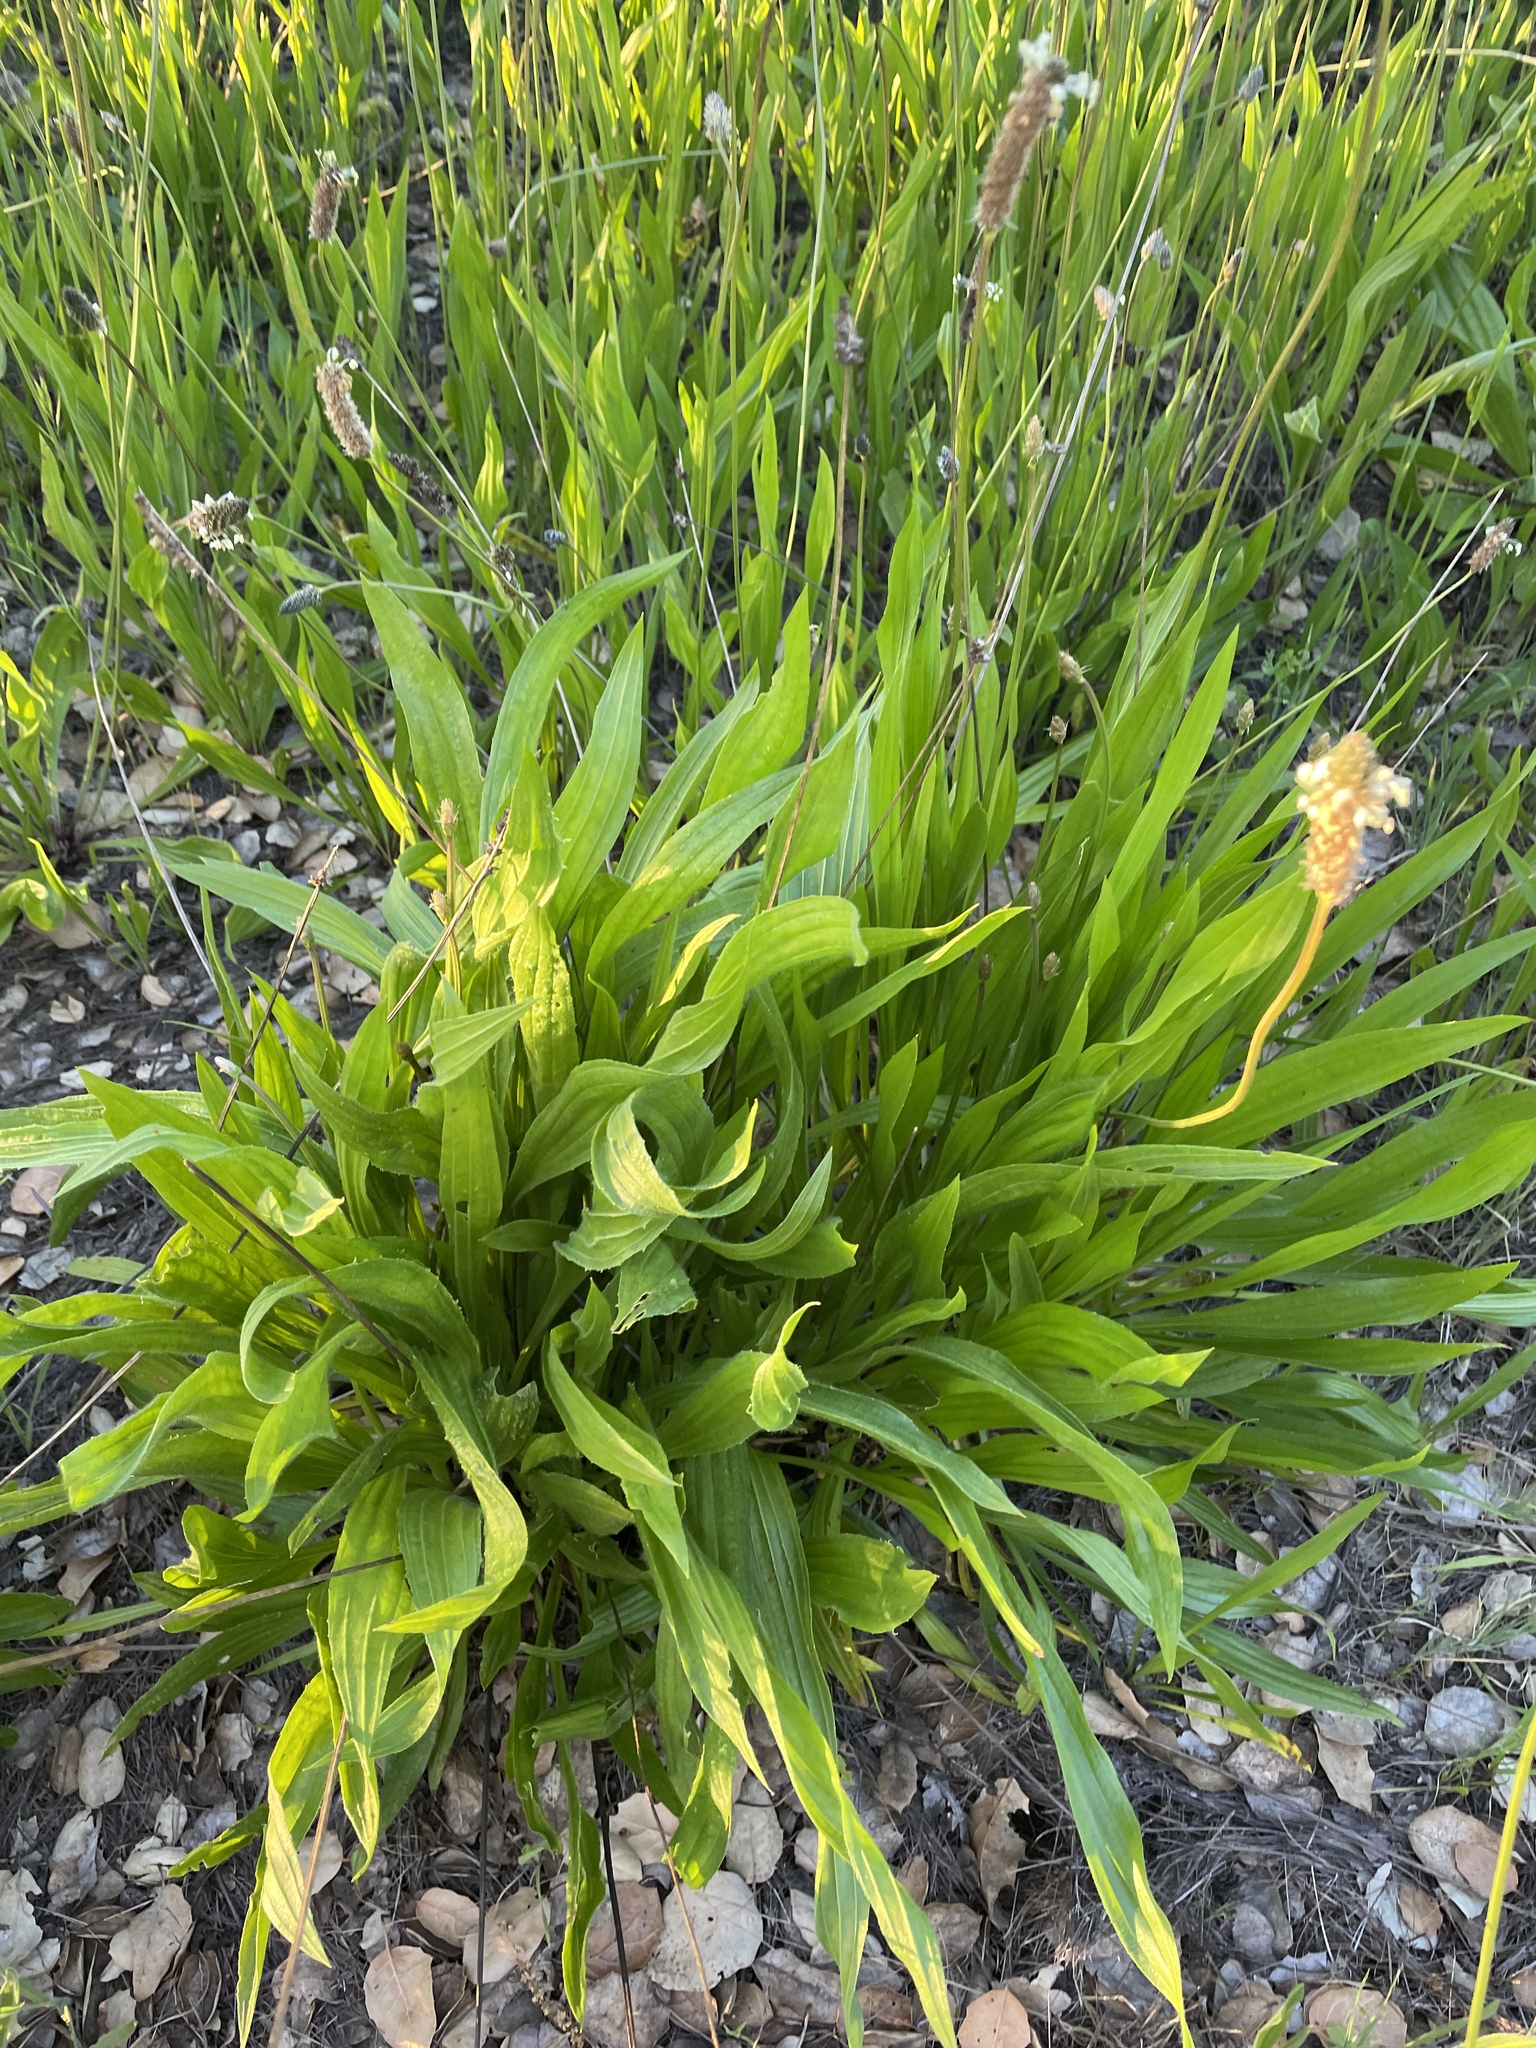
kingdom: Plantae
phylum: Tracheophyta
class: Magnoliopsida
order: Lamiales
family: Plantaginaceae
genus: Plantago
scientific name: Plantago lanceolata
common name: Ribwort plantain
